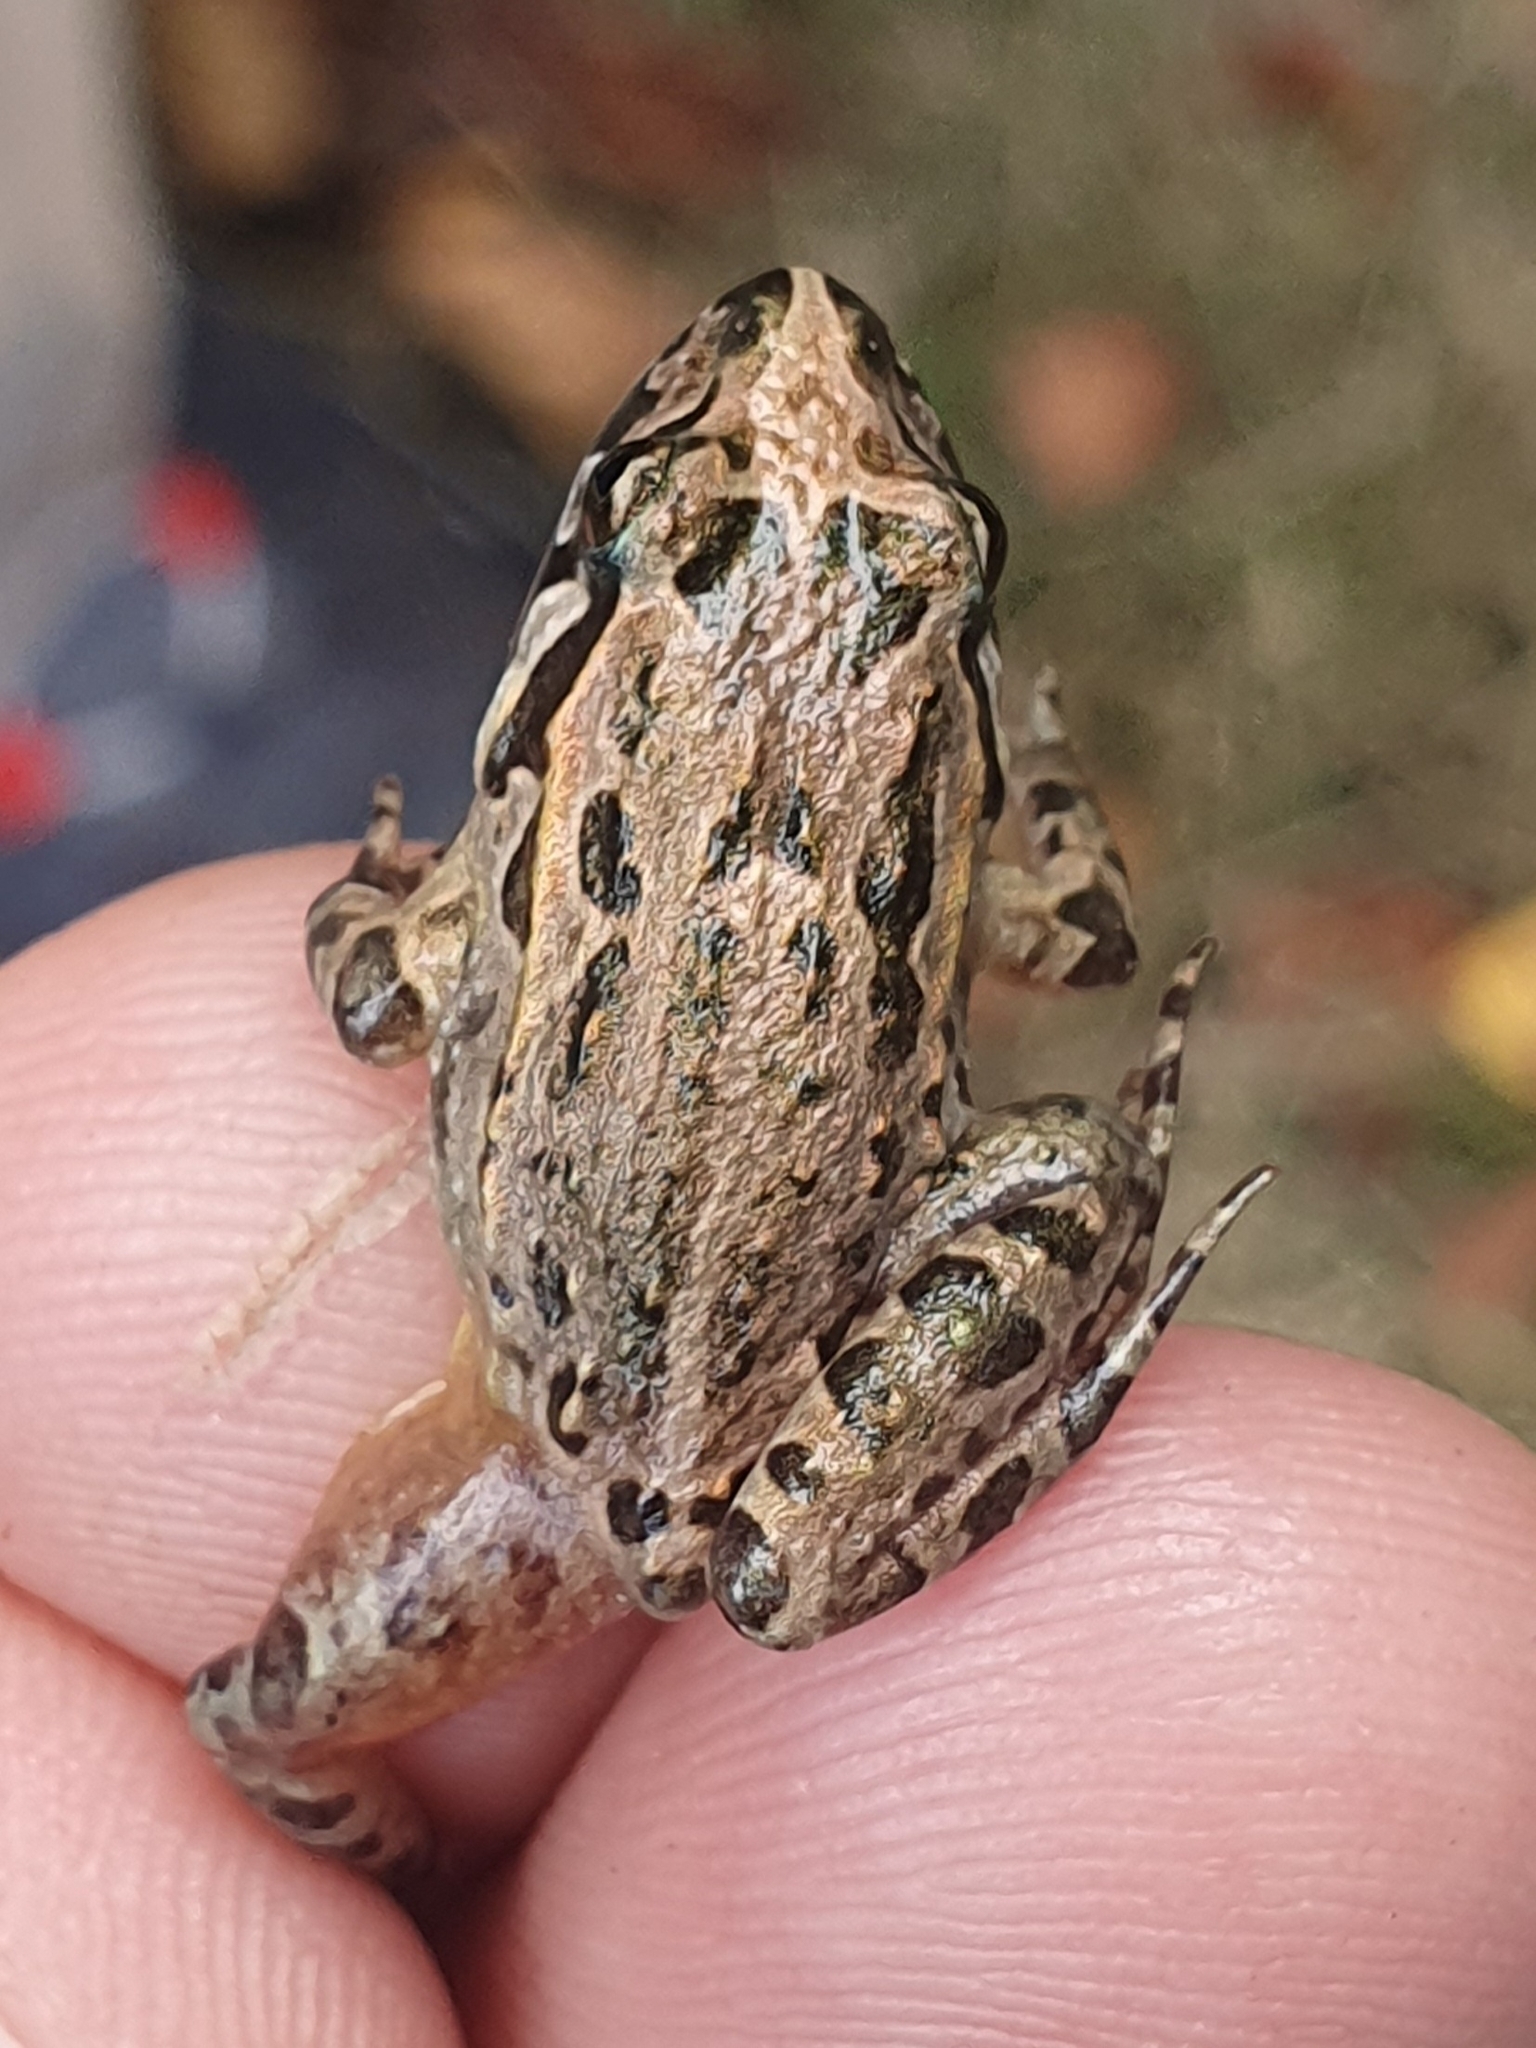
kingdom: Animalia
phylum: Chordata
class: Amphibia
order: Anura
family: Alytidae
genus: Discoglossus
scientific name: Discoglossus galganoi
